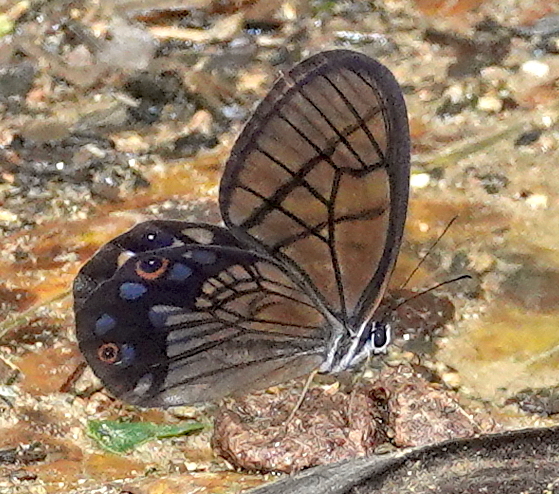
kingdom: Animalia
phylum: Arthropoda
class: Insecta
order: Lepidoptera
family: Nymphalidae
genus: Pseudohaetera
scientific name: Pseudohaetera
